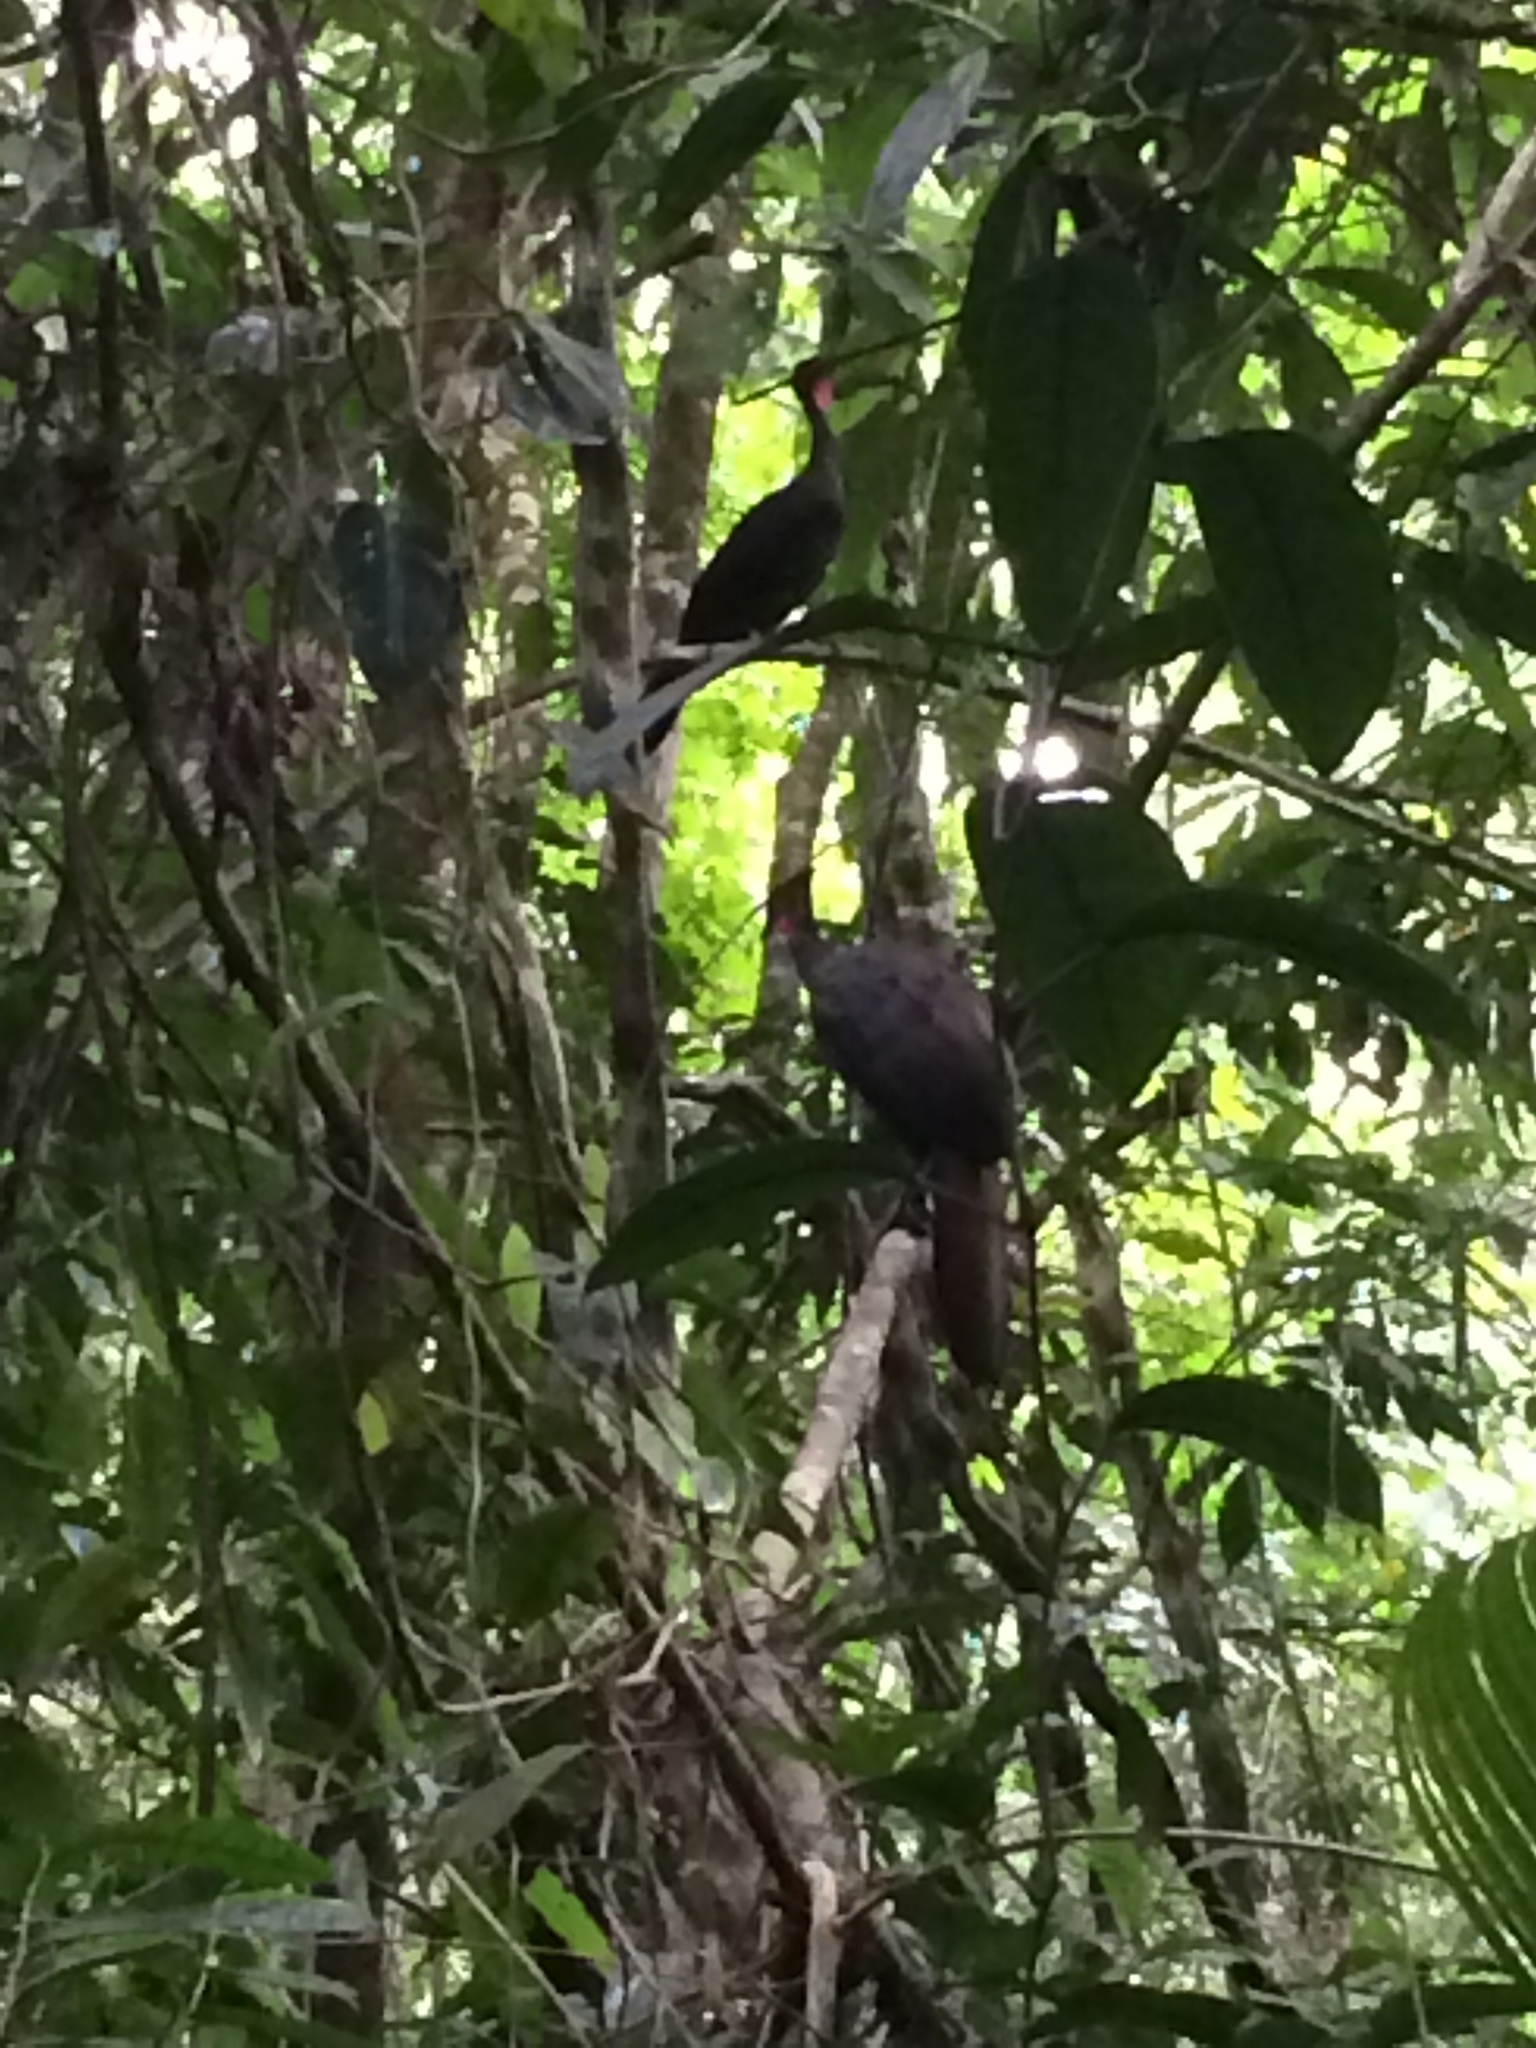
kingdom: Animalia
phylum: Chordata
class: Aves
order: Galliformes
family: Cracidae
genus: Penelope
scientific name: Penelope purpurascens
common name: Crested guan
